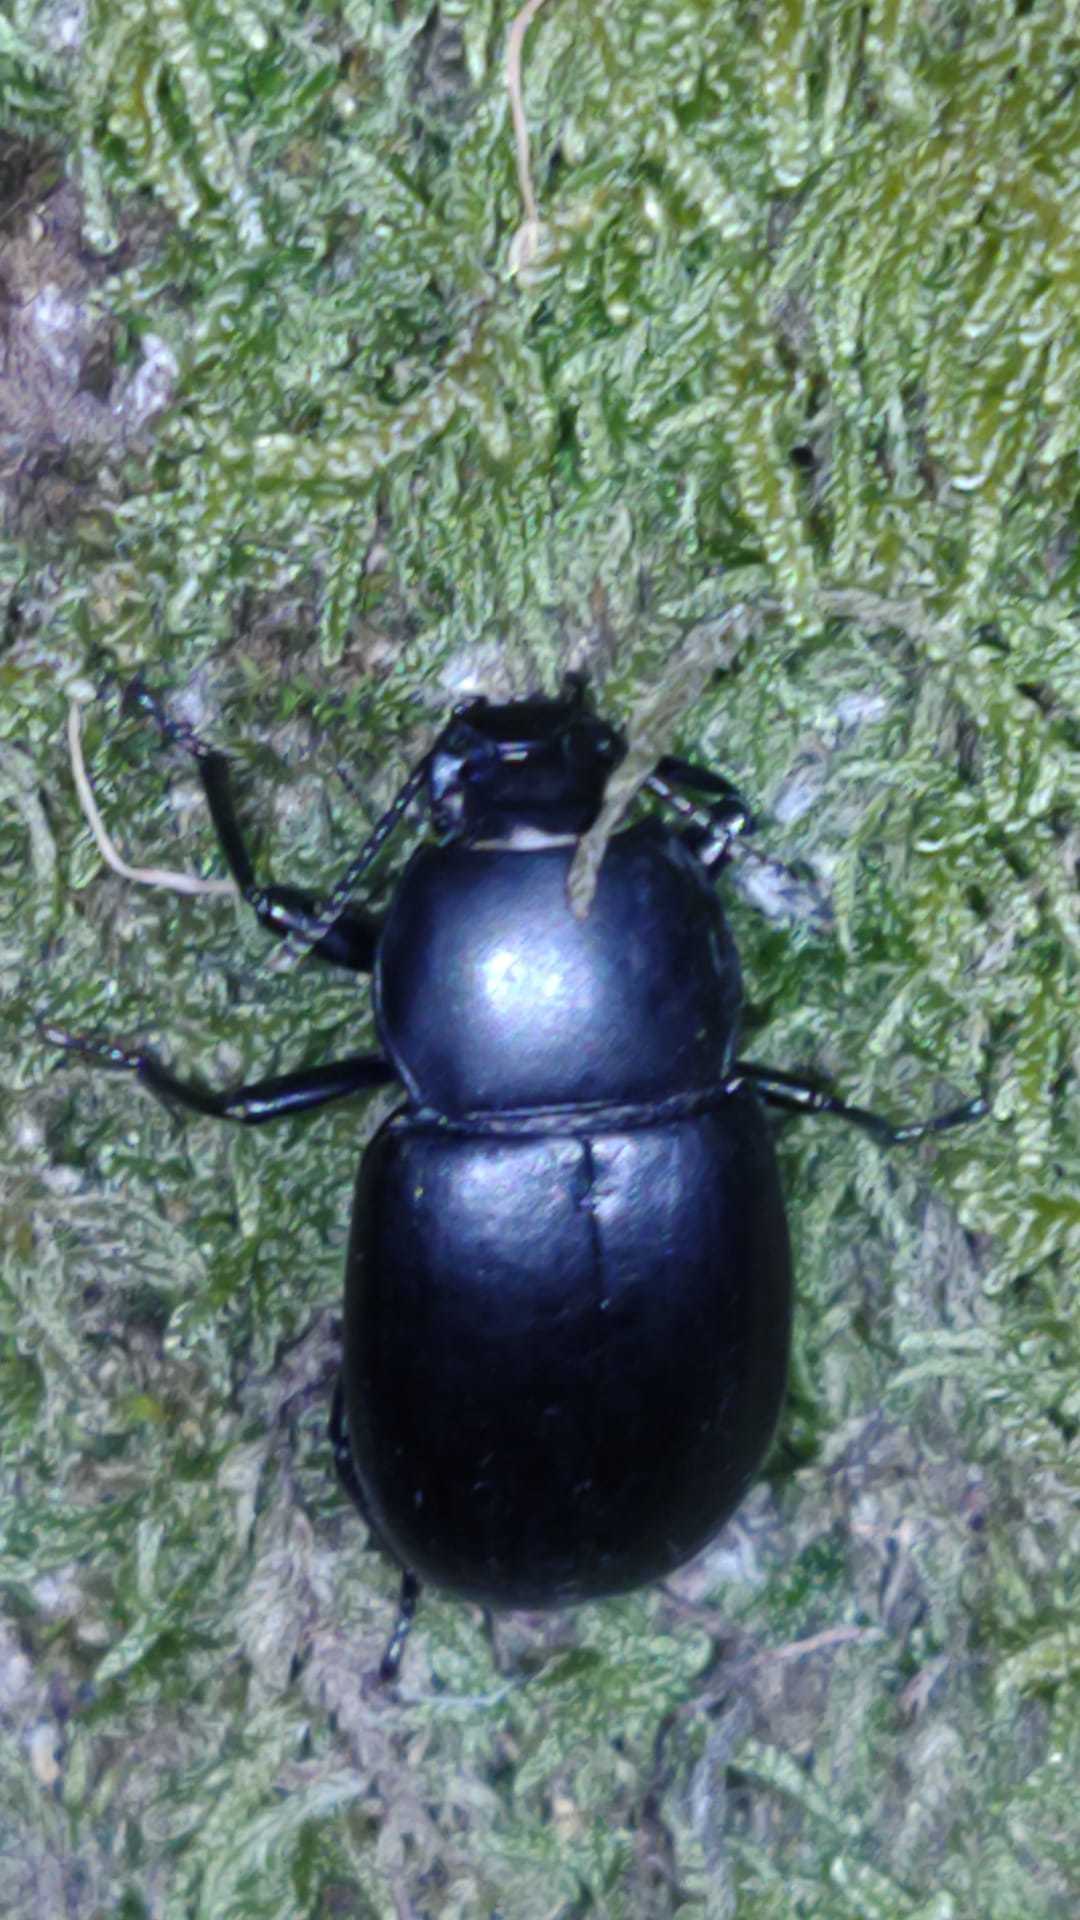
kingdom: Animalia
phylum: Arthropoda
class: Insecta
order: Coleoptera
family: Tenebrionidae
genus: Coelometopus
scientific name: Coelometopus clypeatus
